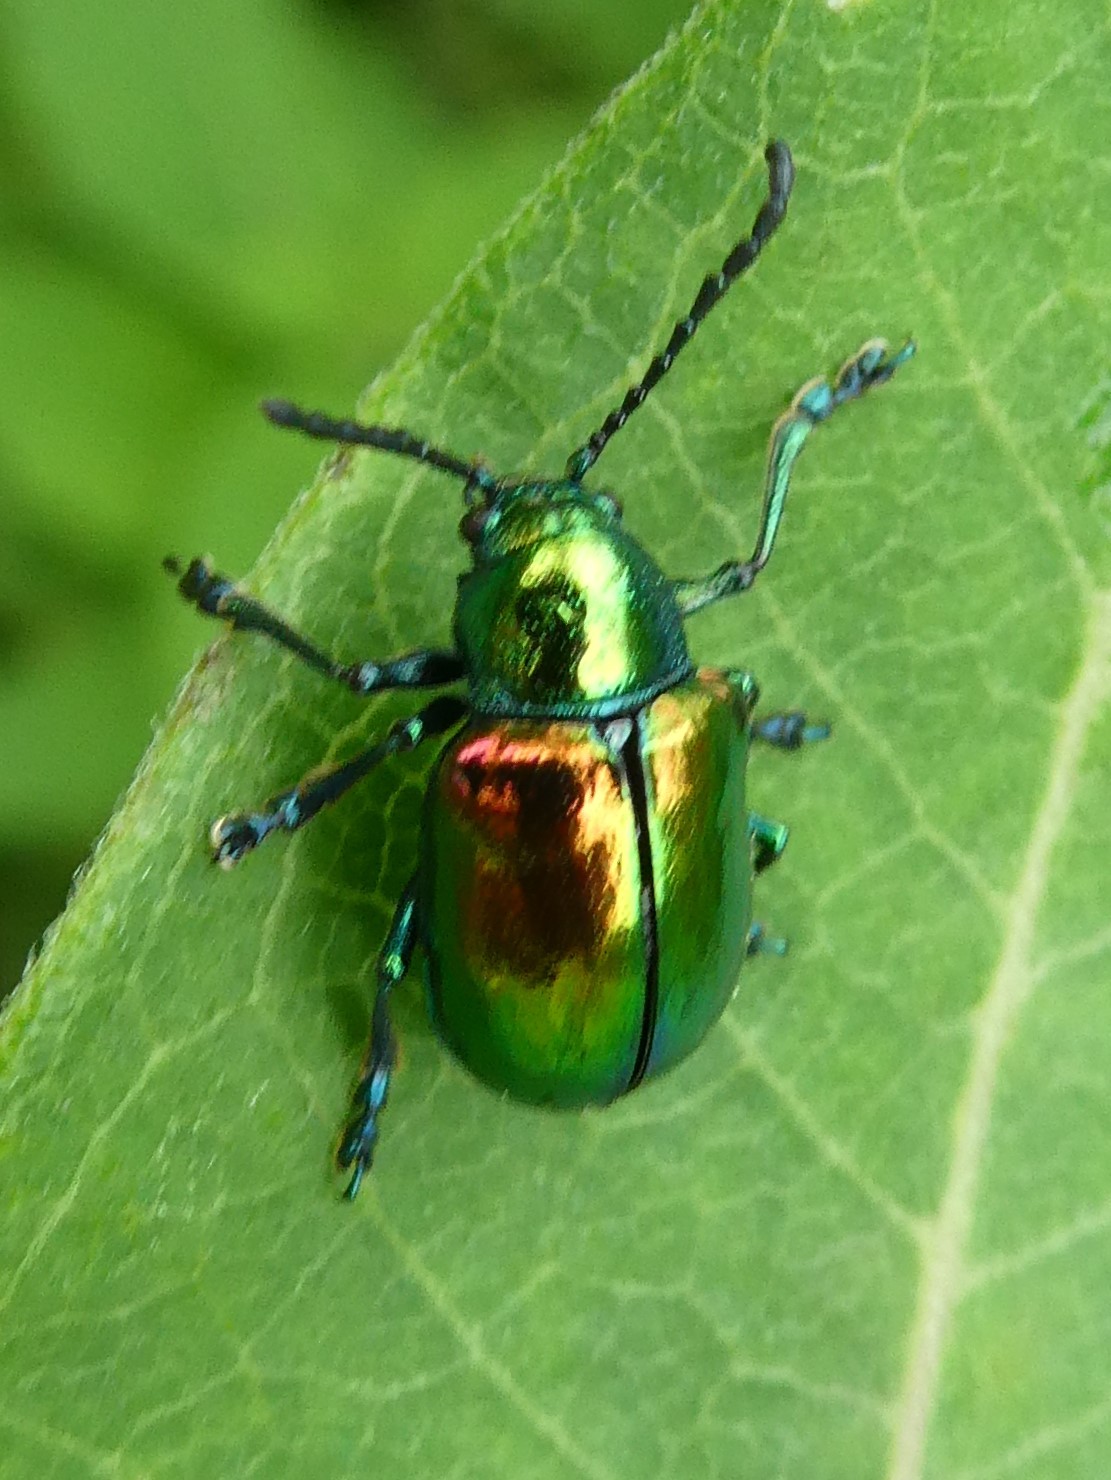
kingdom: Animalia
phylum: Arthropoda
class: Insecta
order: Coleoptera
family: Chrysomelidae
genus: Chrysochus
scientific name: Chrysochus auratus
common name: Dogbane leaf beetle
